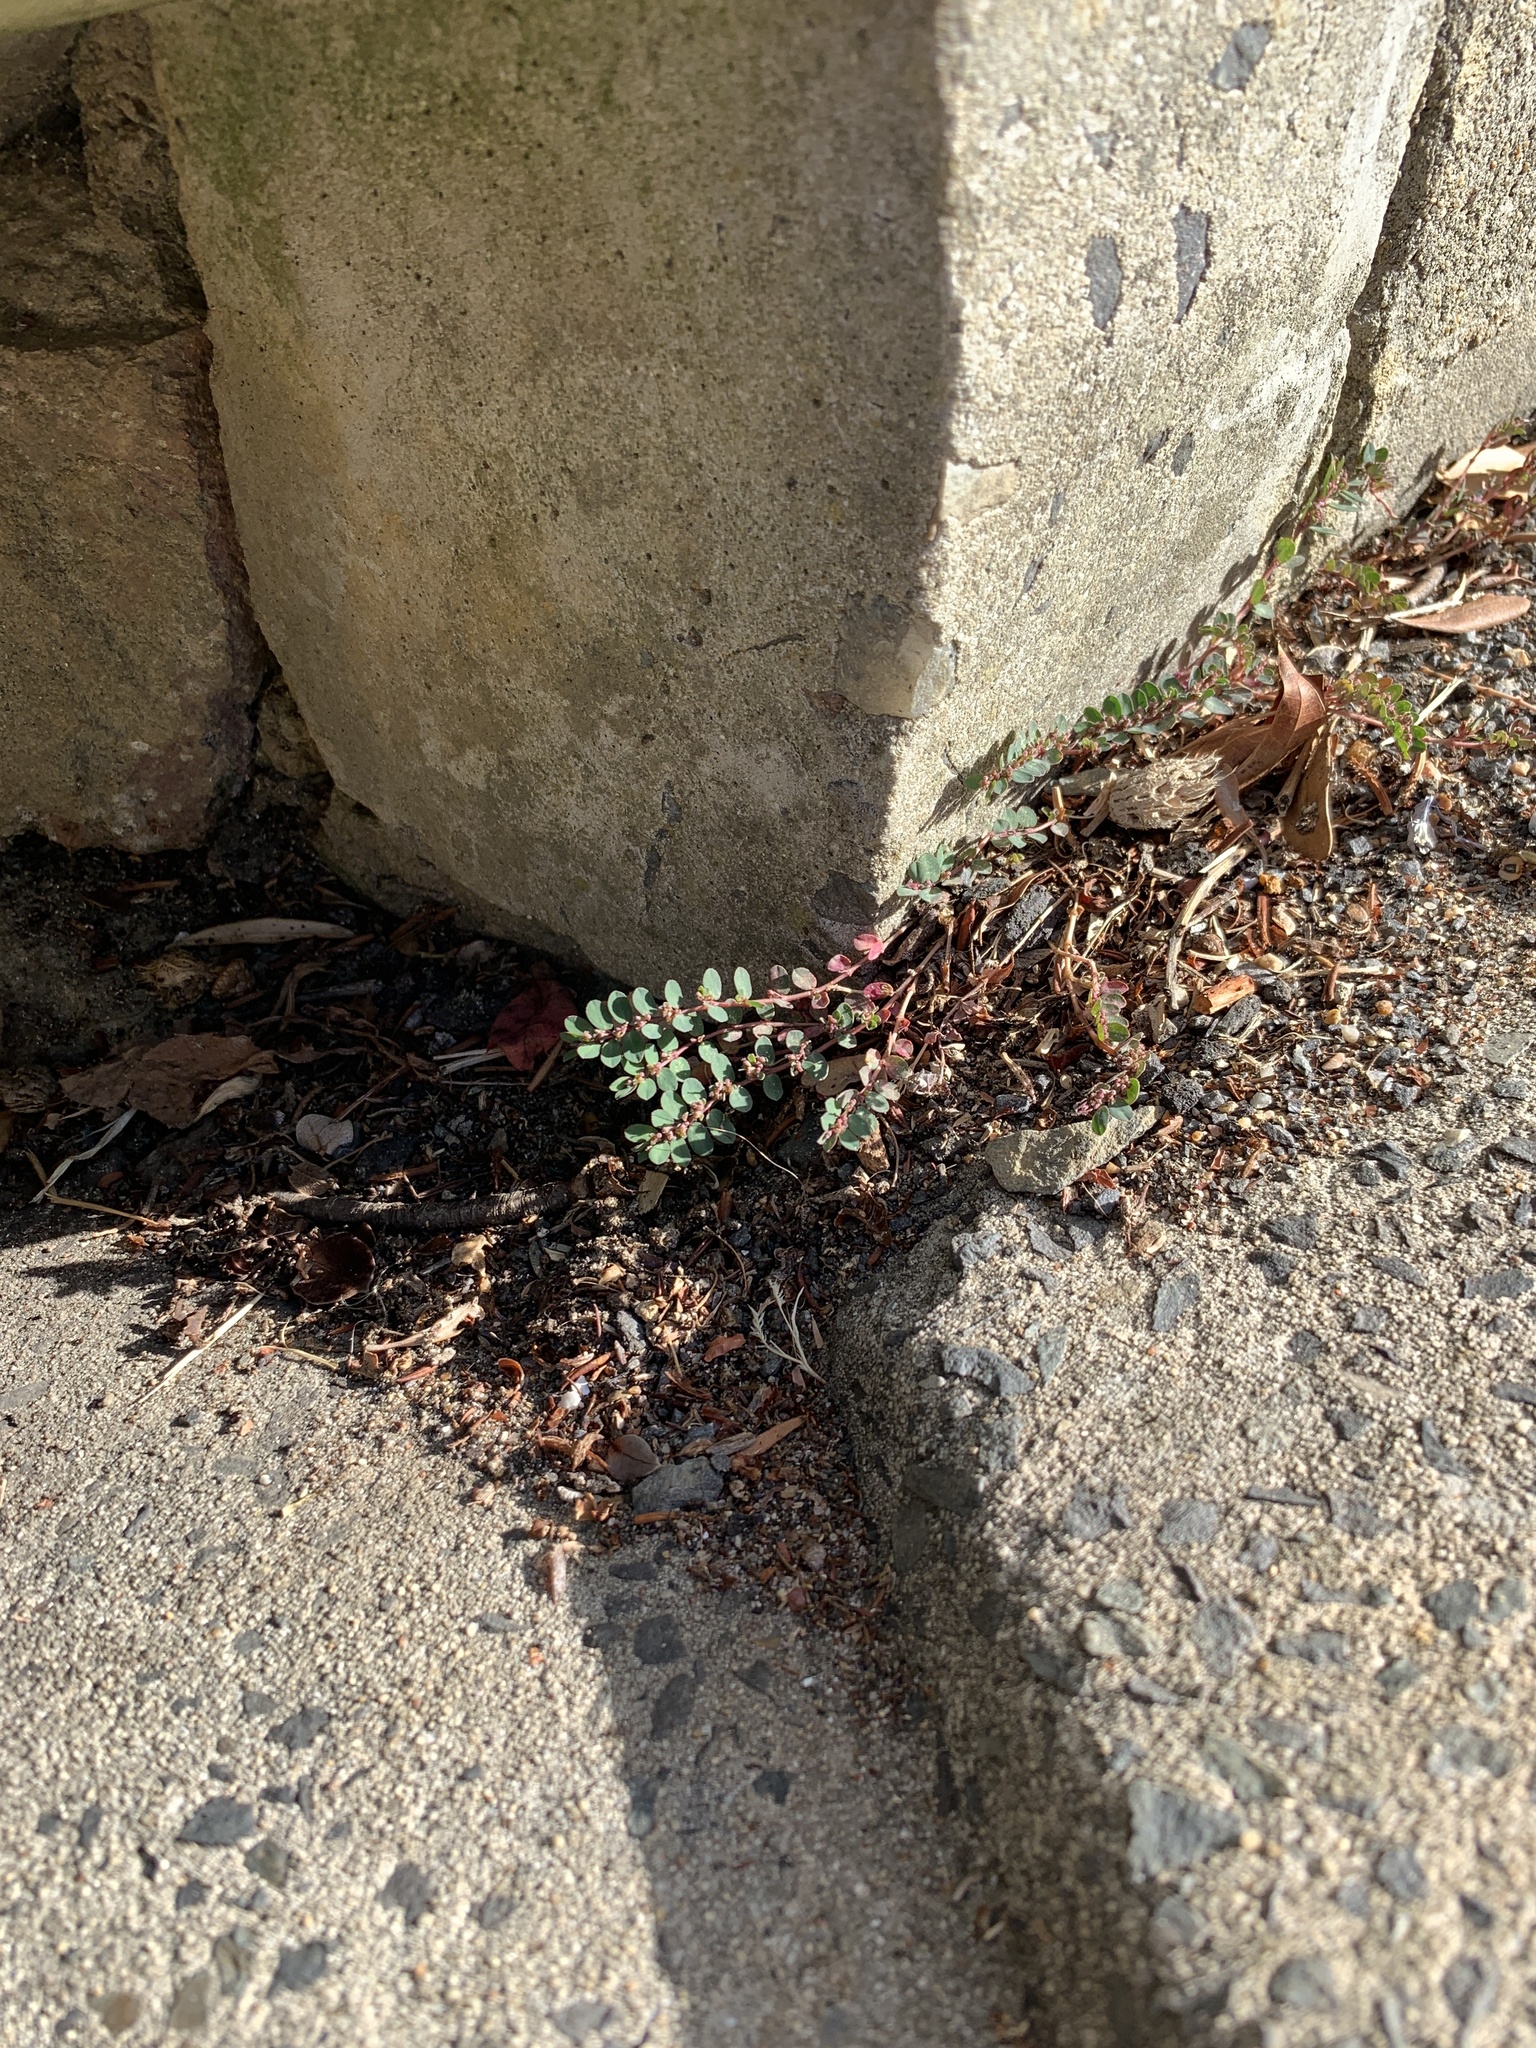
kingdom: Plantae
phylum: Tracheophyta
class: Magnoliopsida
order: Malpighiales
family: Euphorbiaceae
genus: Euphorbia
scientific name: Euphorbia prostrata
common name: Prostrate sandmat
